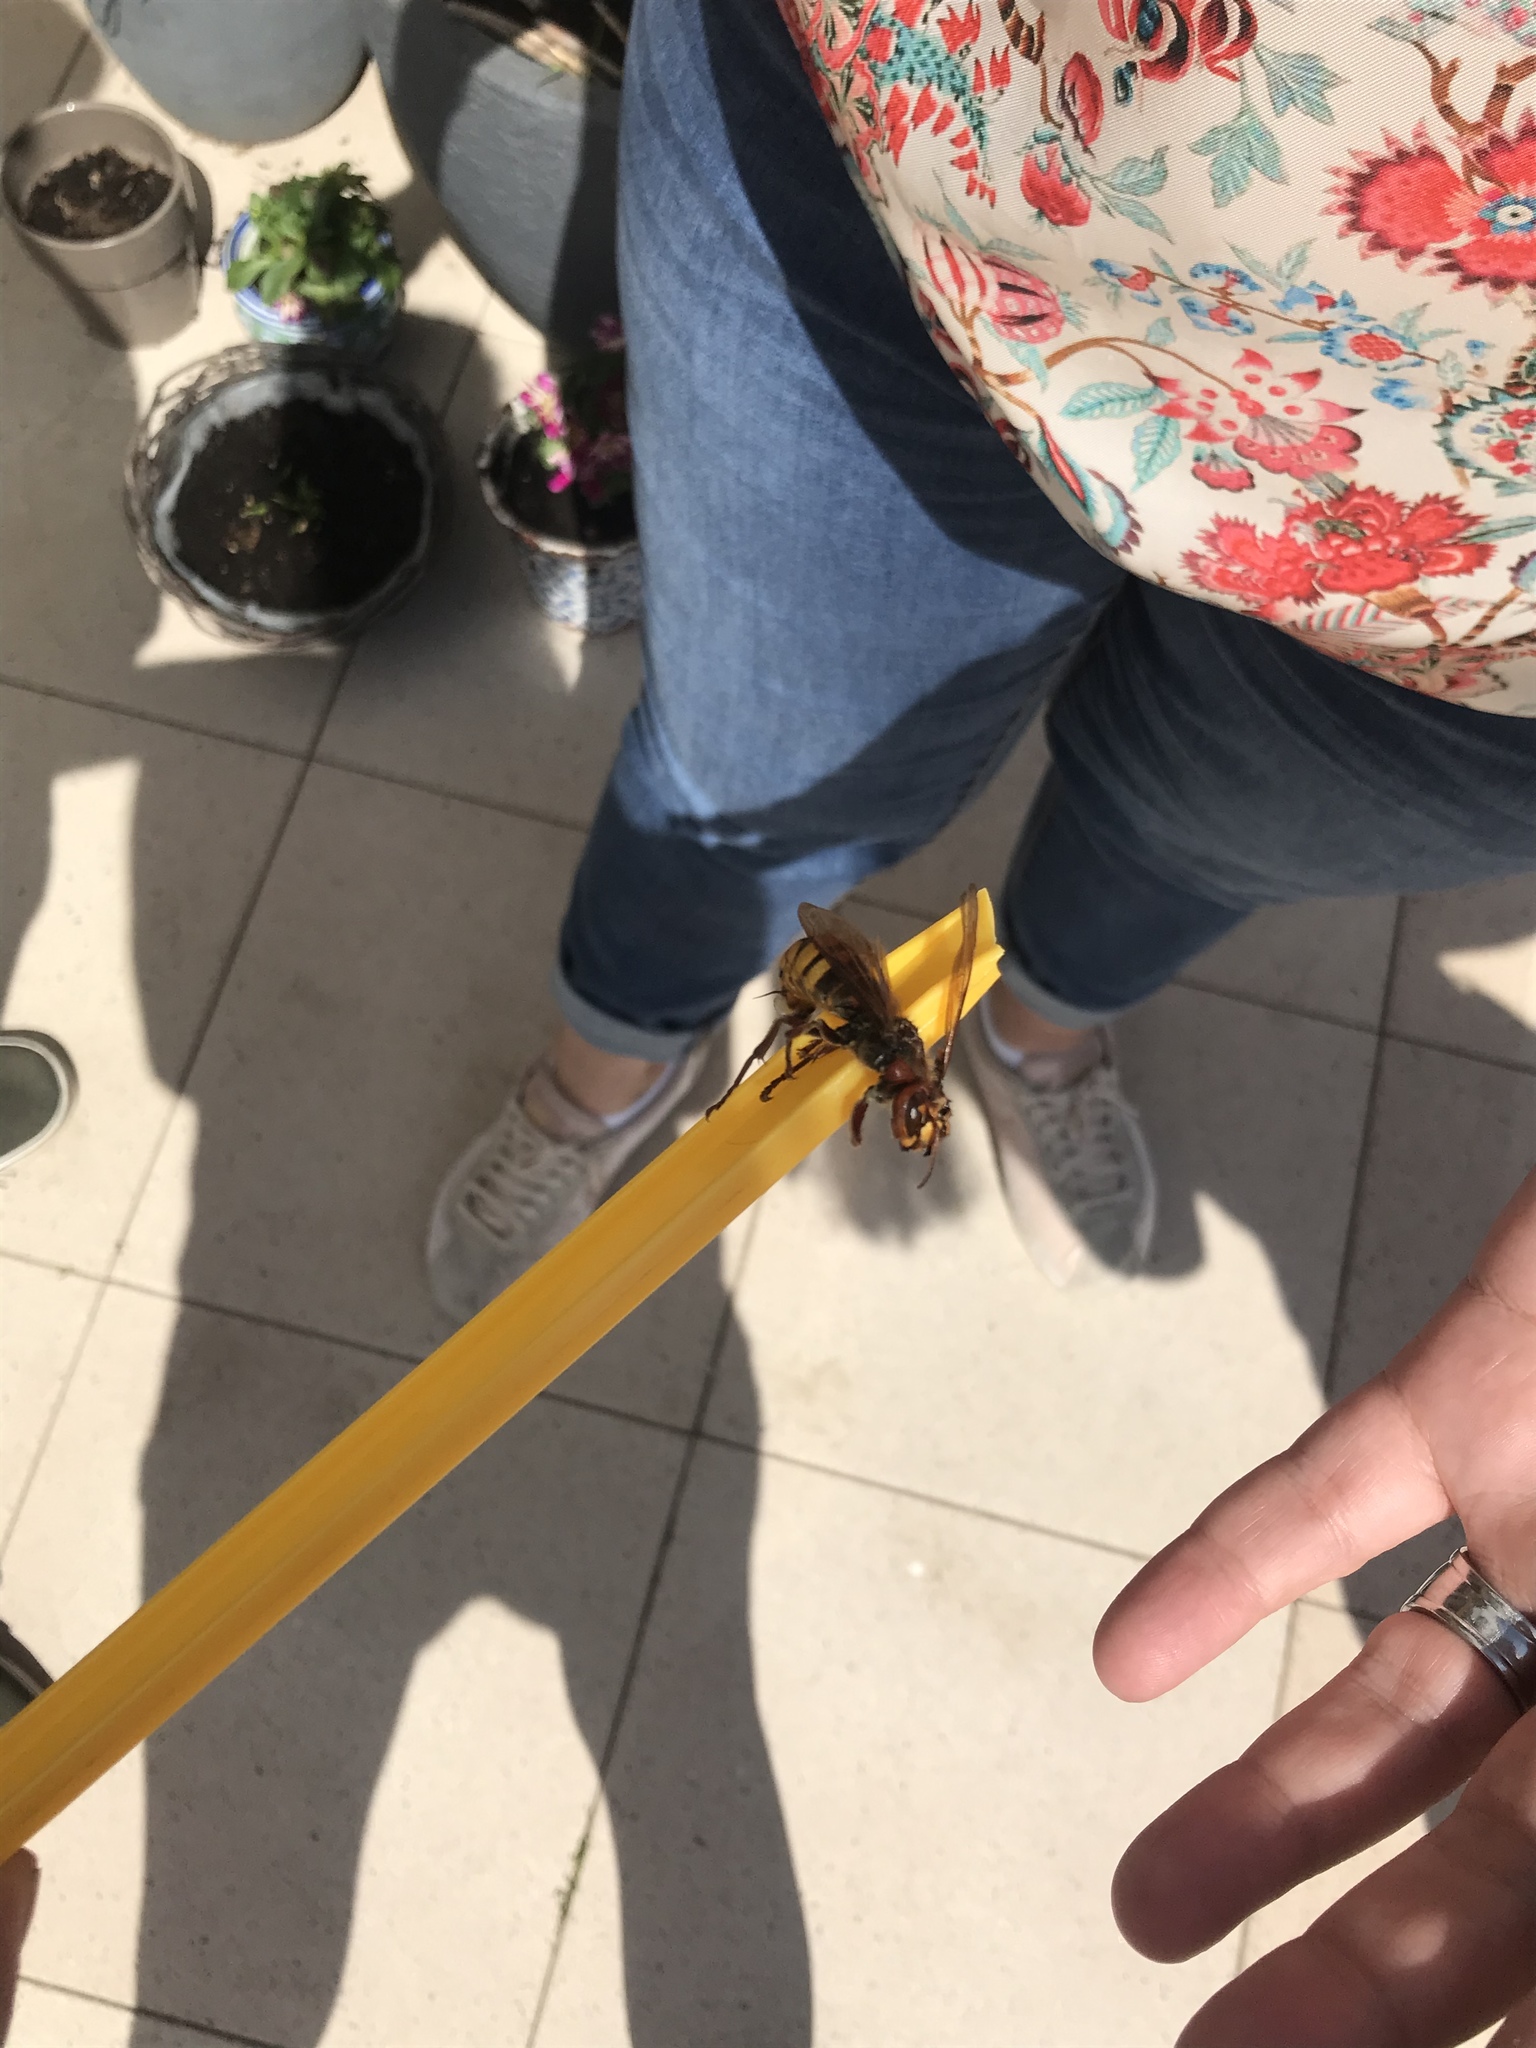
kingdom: Animalia
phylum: Arthropoda
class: Insecta
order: Hymenoptera
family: Vespidae
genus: Vespa
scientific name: Vespa crabro
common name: Hornet
